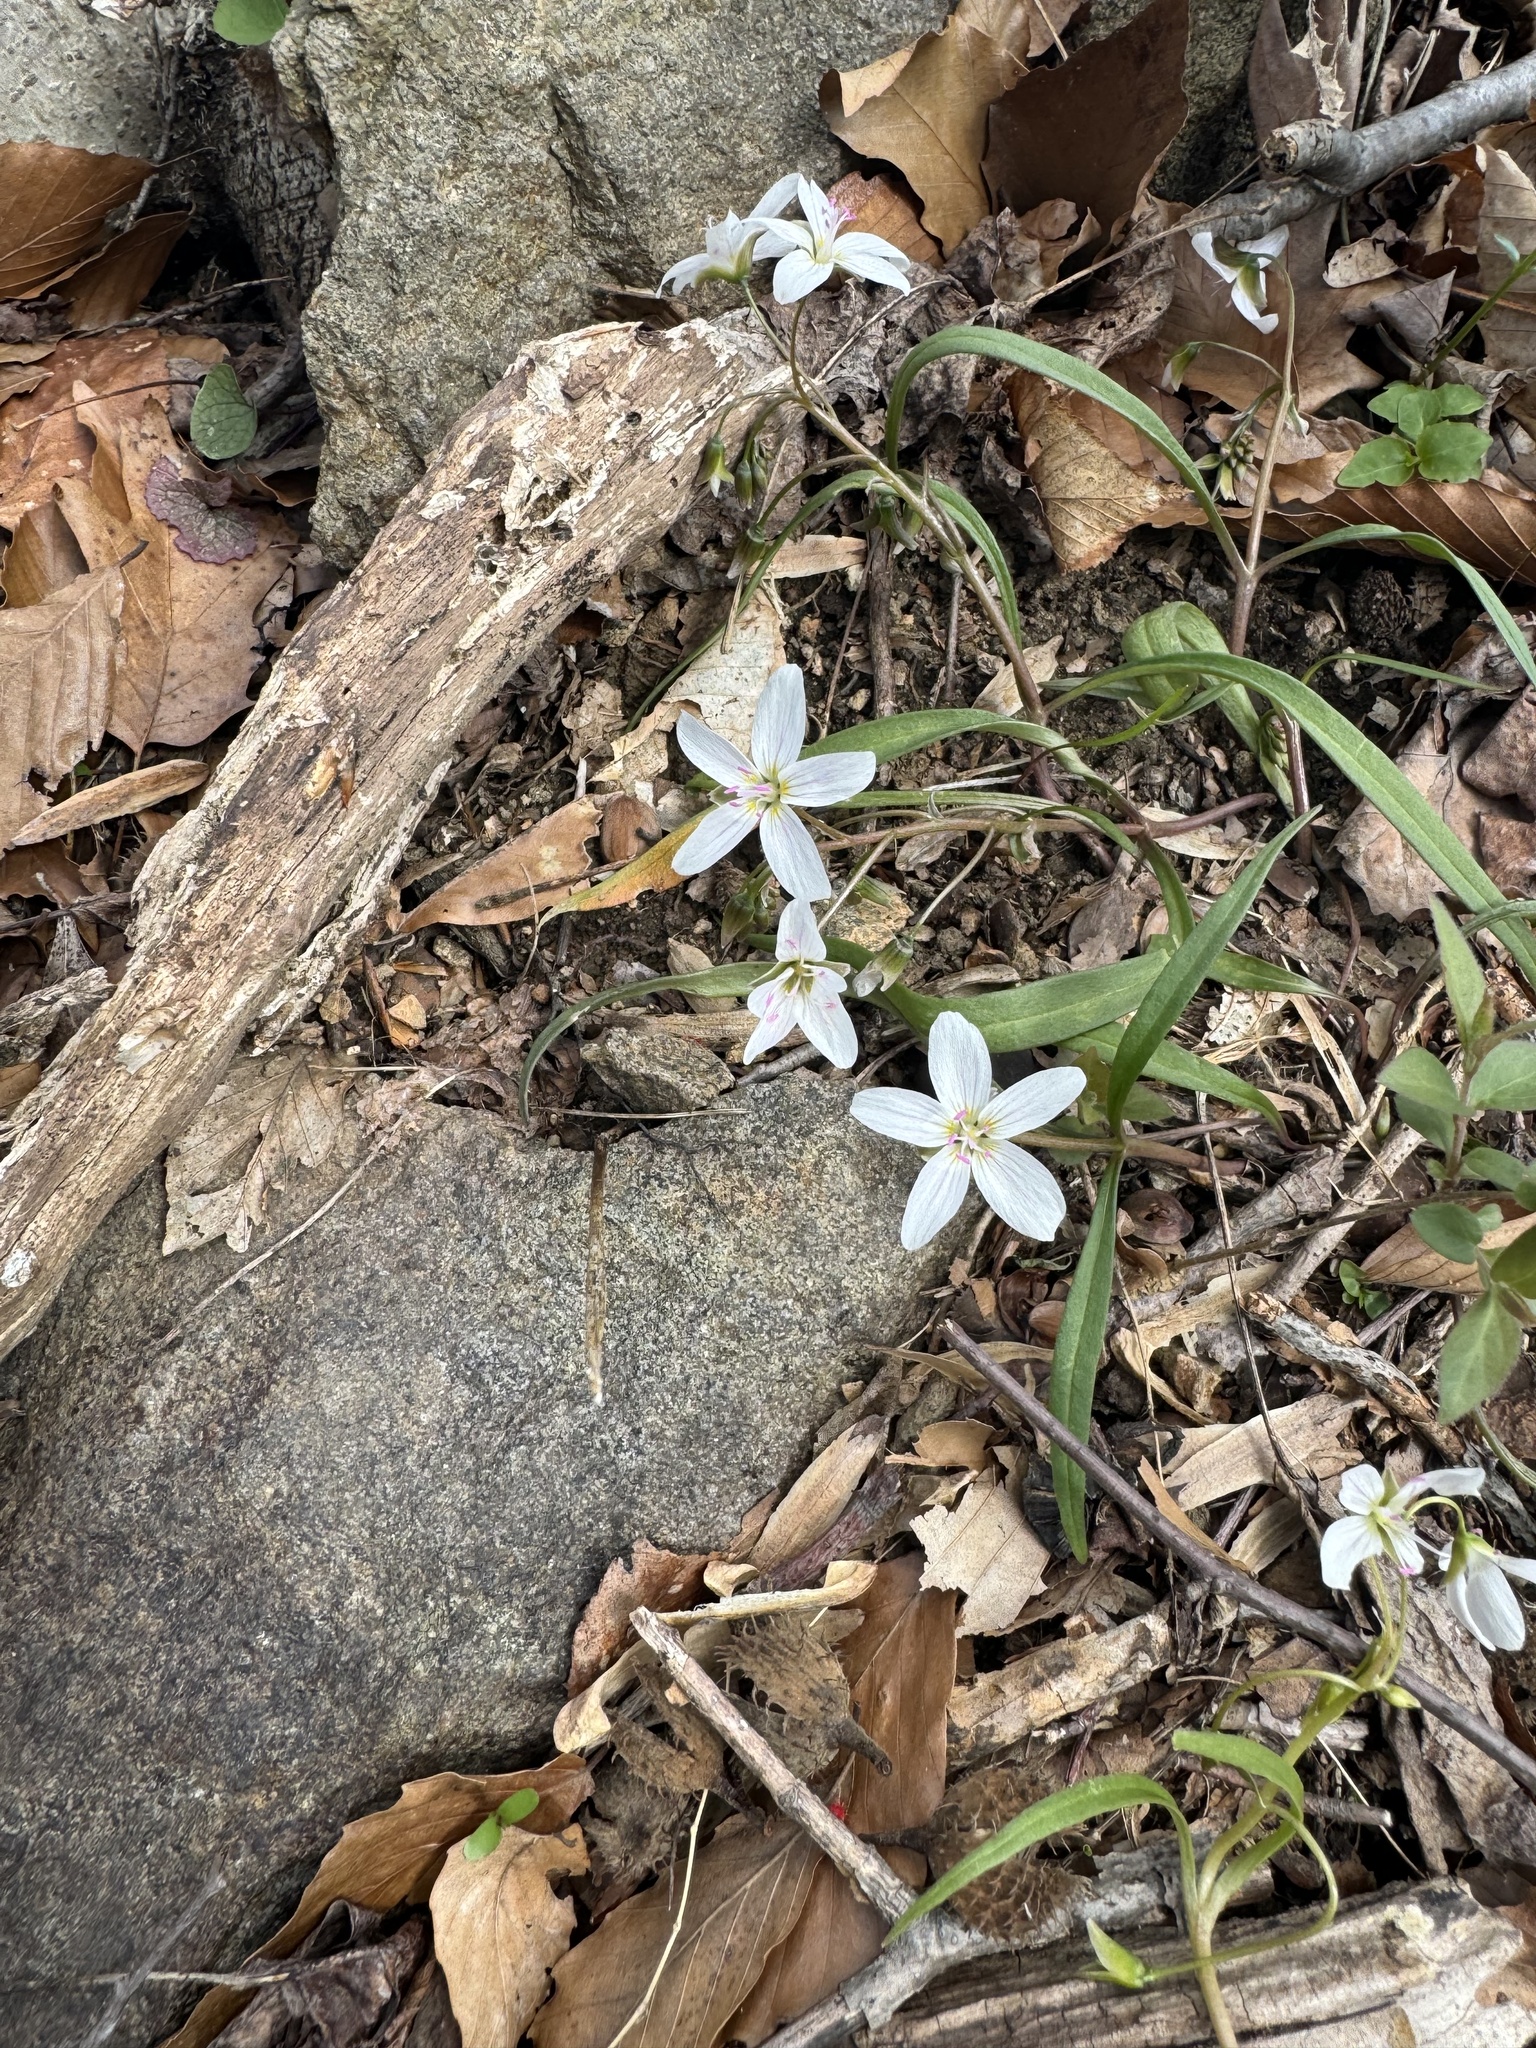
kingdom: Plantae
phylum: Tracheophyta
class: Magnoliopsida
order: Caryophyllales
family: Montiaceae
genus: Claytonia
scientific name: Claytonia virginica
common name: Virginia springbeauty
